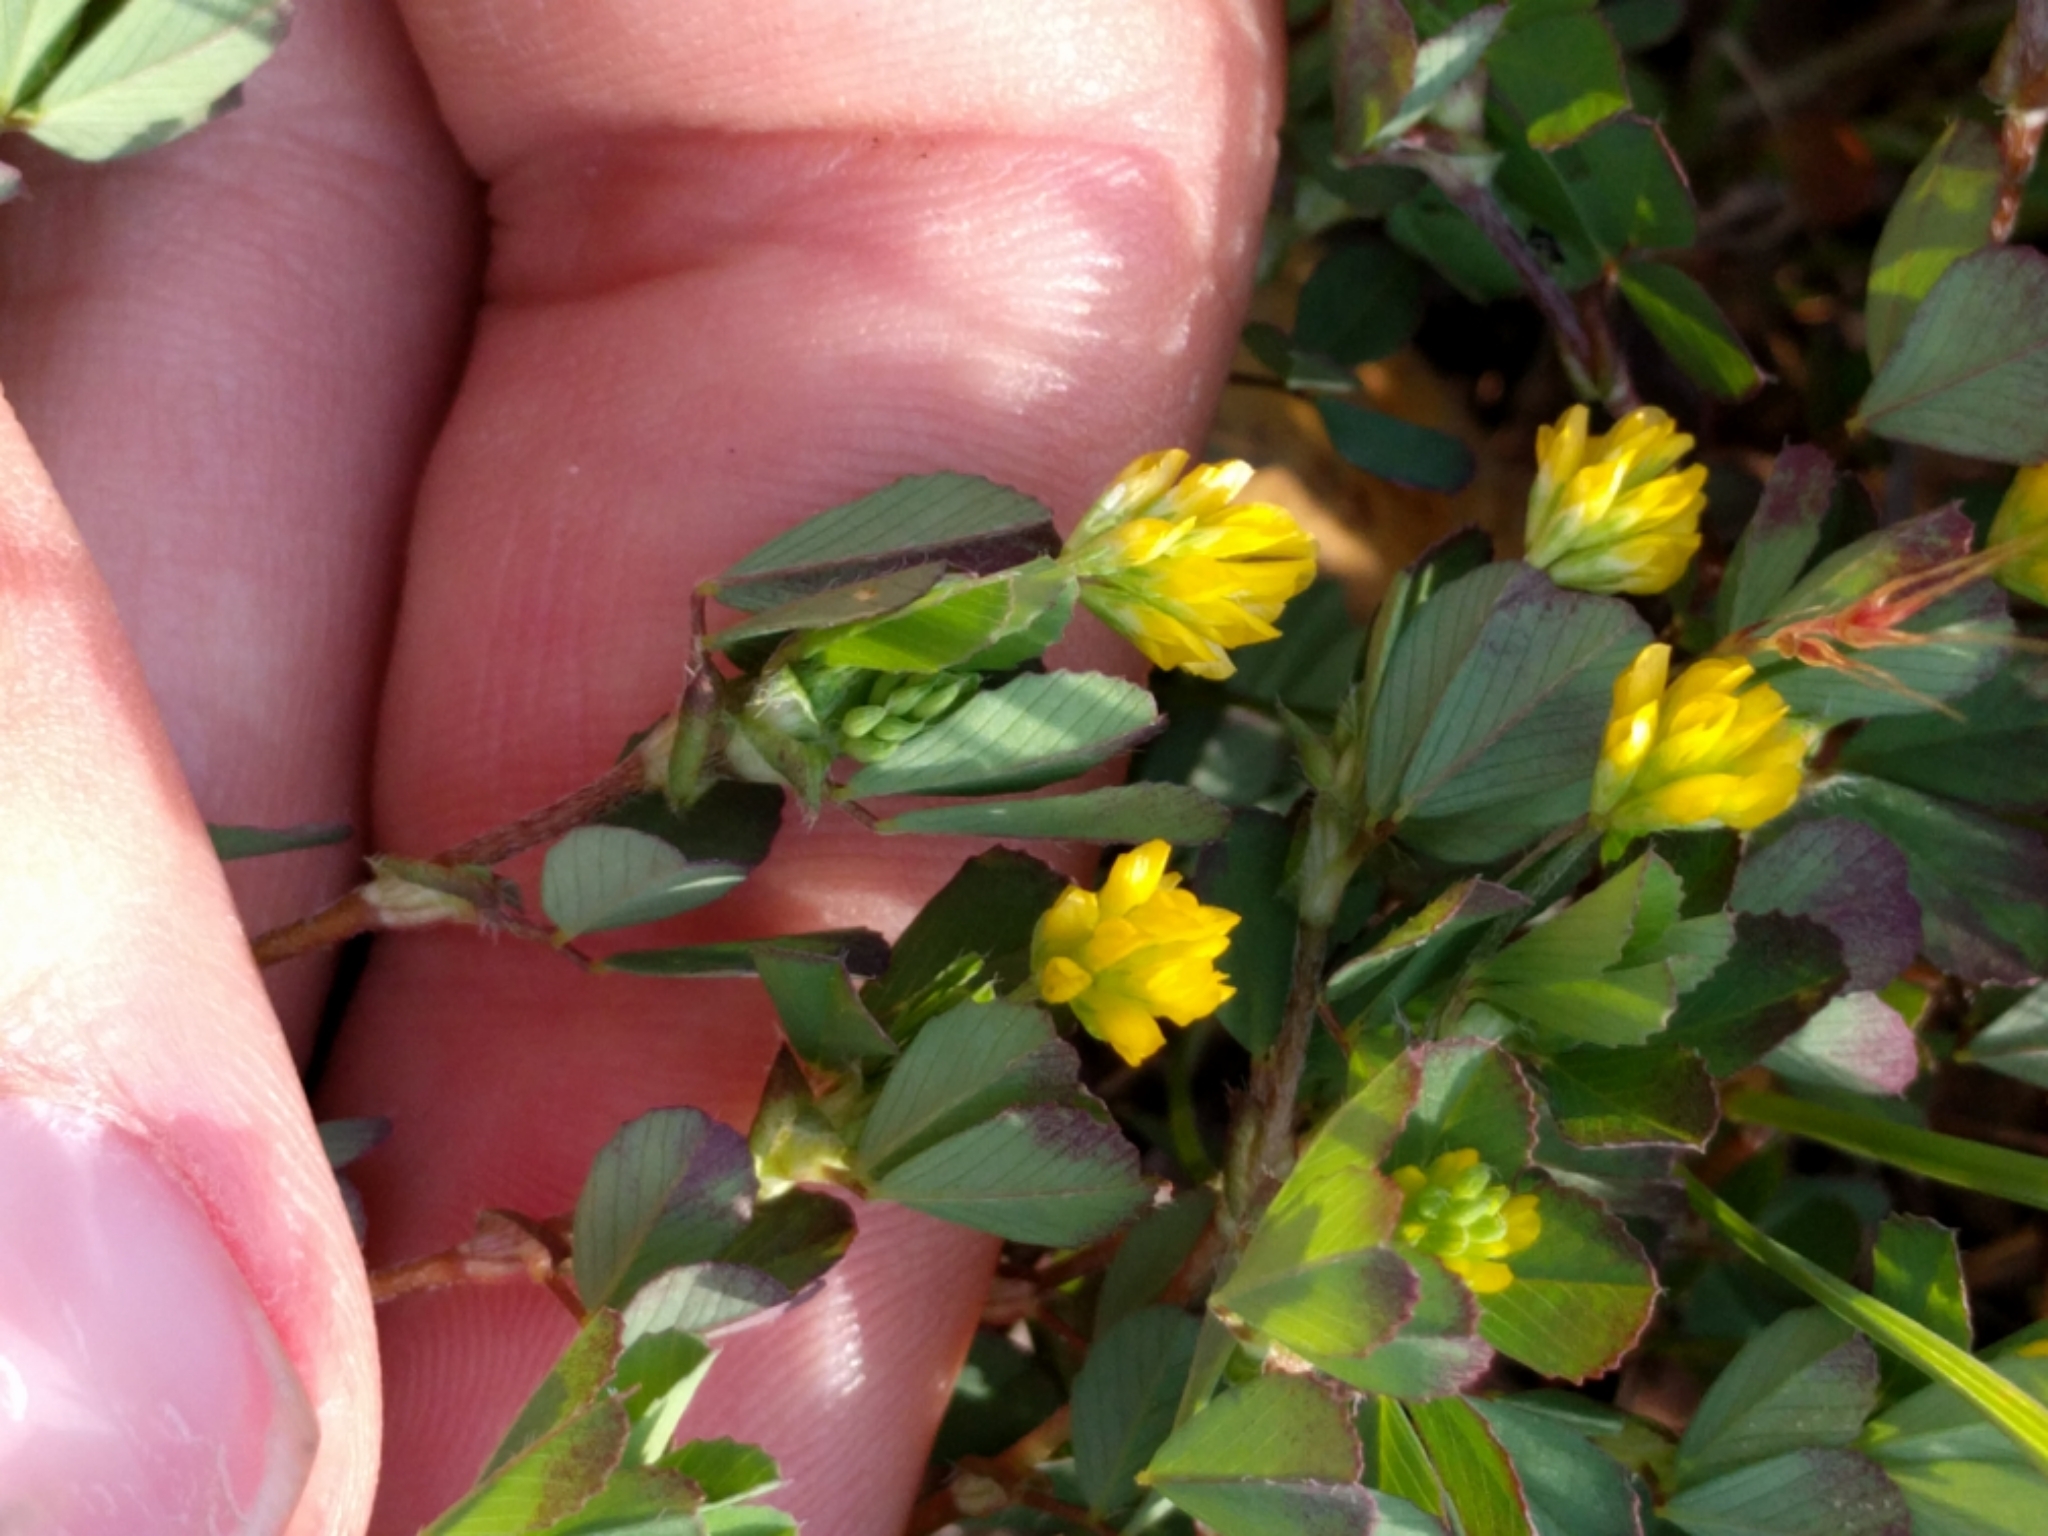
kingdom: Plantae
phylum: Tracheophyta
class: Magnoliopsida
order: Fabales
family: Fabaceae
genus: Trifolium
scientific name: Trifolium dubium
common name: Suckling clover
